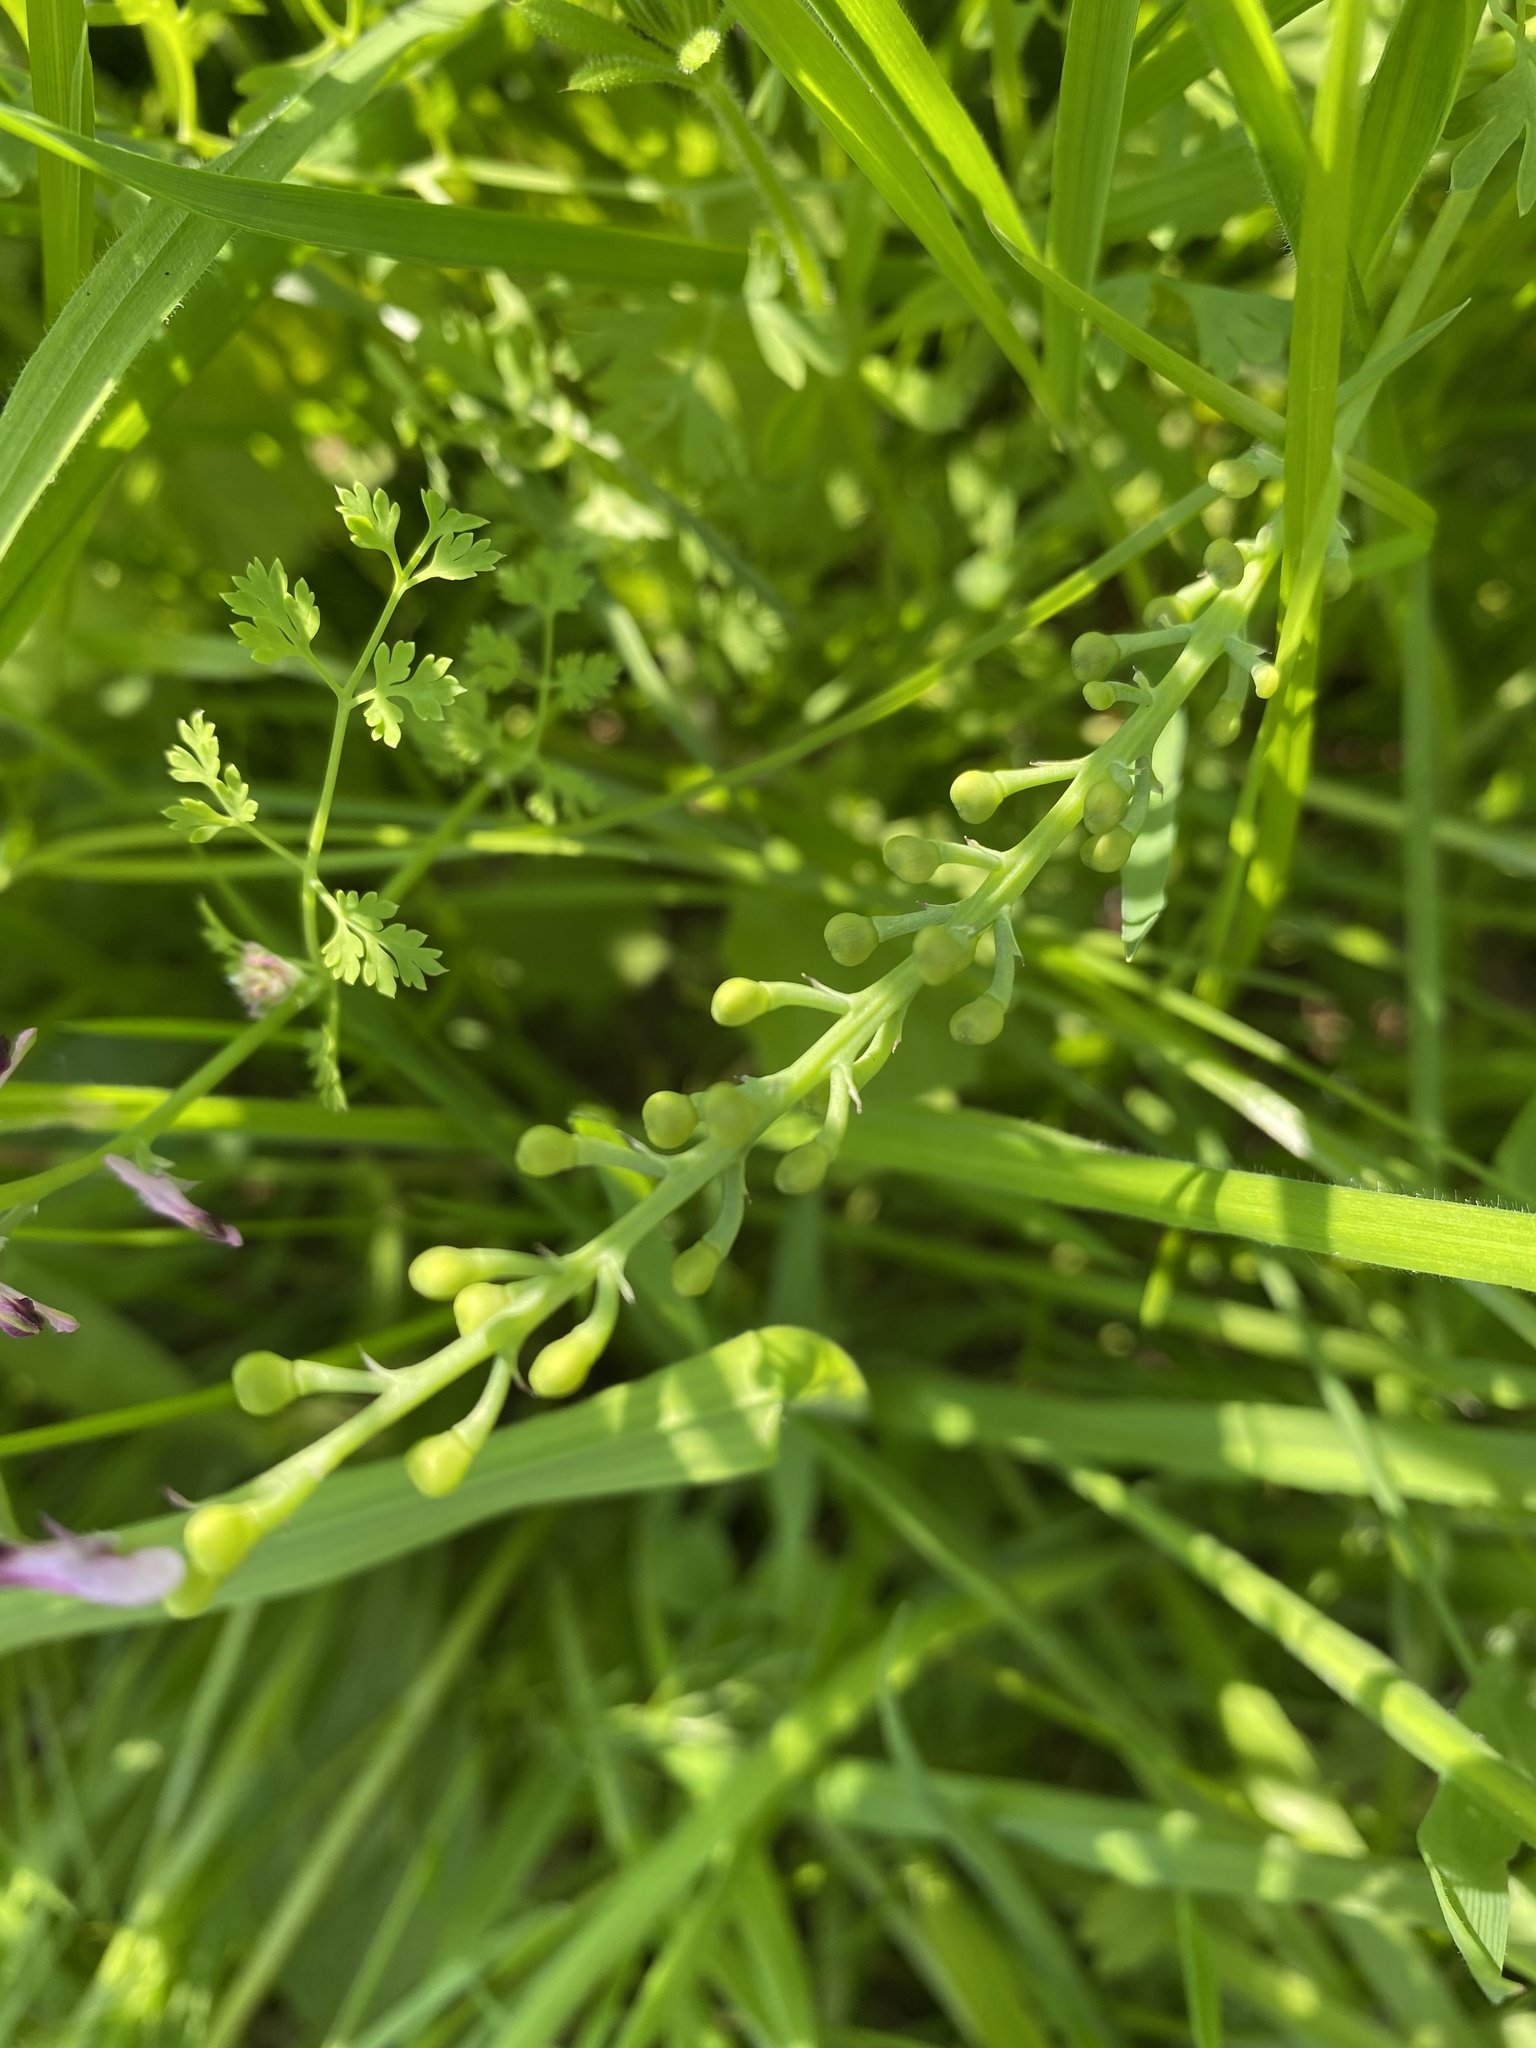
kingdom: Plantae
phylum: Tracheophyta
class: Magnoliopsida
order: Ranunculales
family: Papaveraceae
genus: Fumaria
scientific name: Fumaria officinalis
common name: Common fumitory
